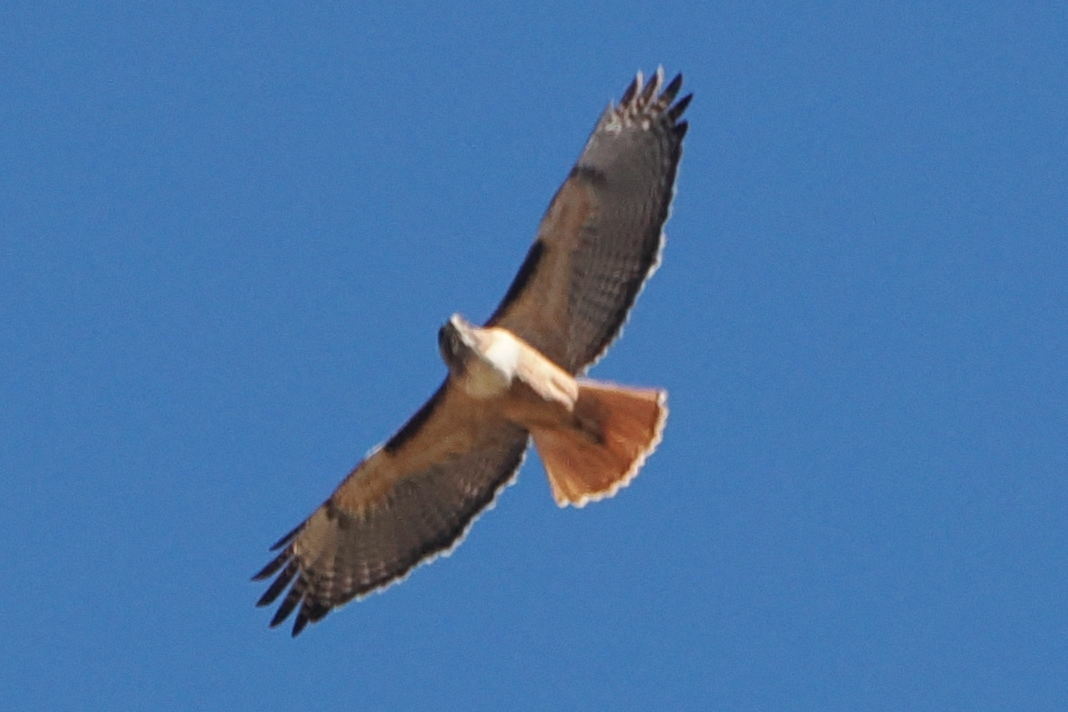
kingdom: Animalia
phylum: Chordata
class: Aves
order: Accipitriformes
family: Accipitridae
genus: Buteo
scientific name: Buteo jamaicensis
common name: Red-tailed hawk
